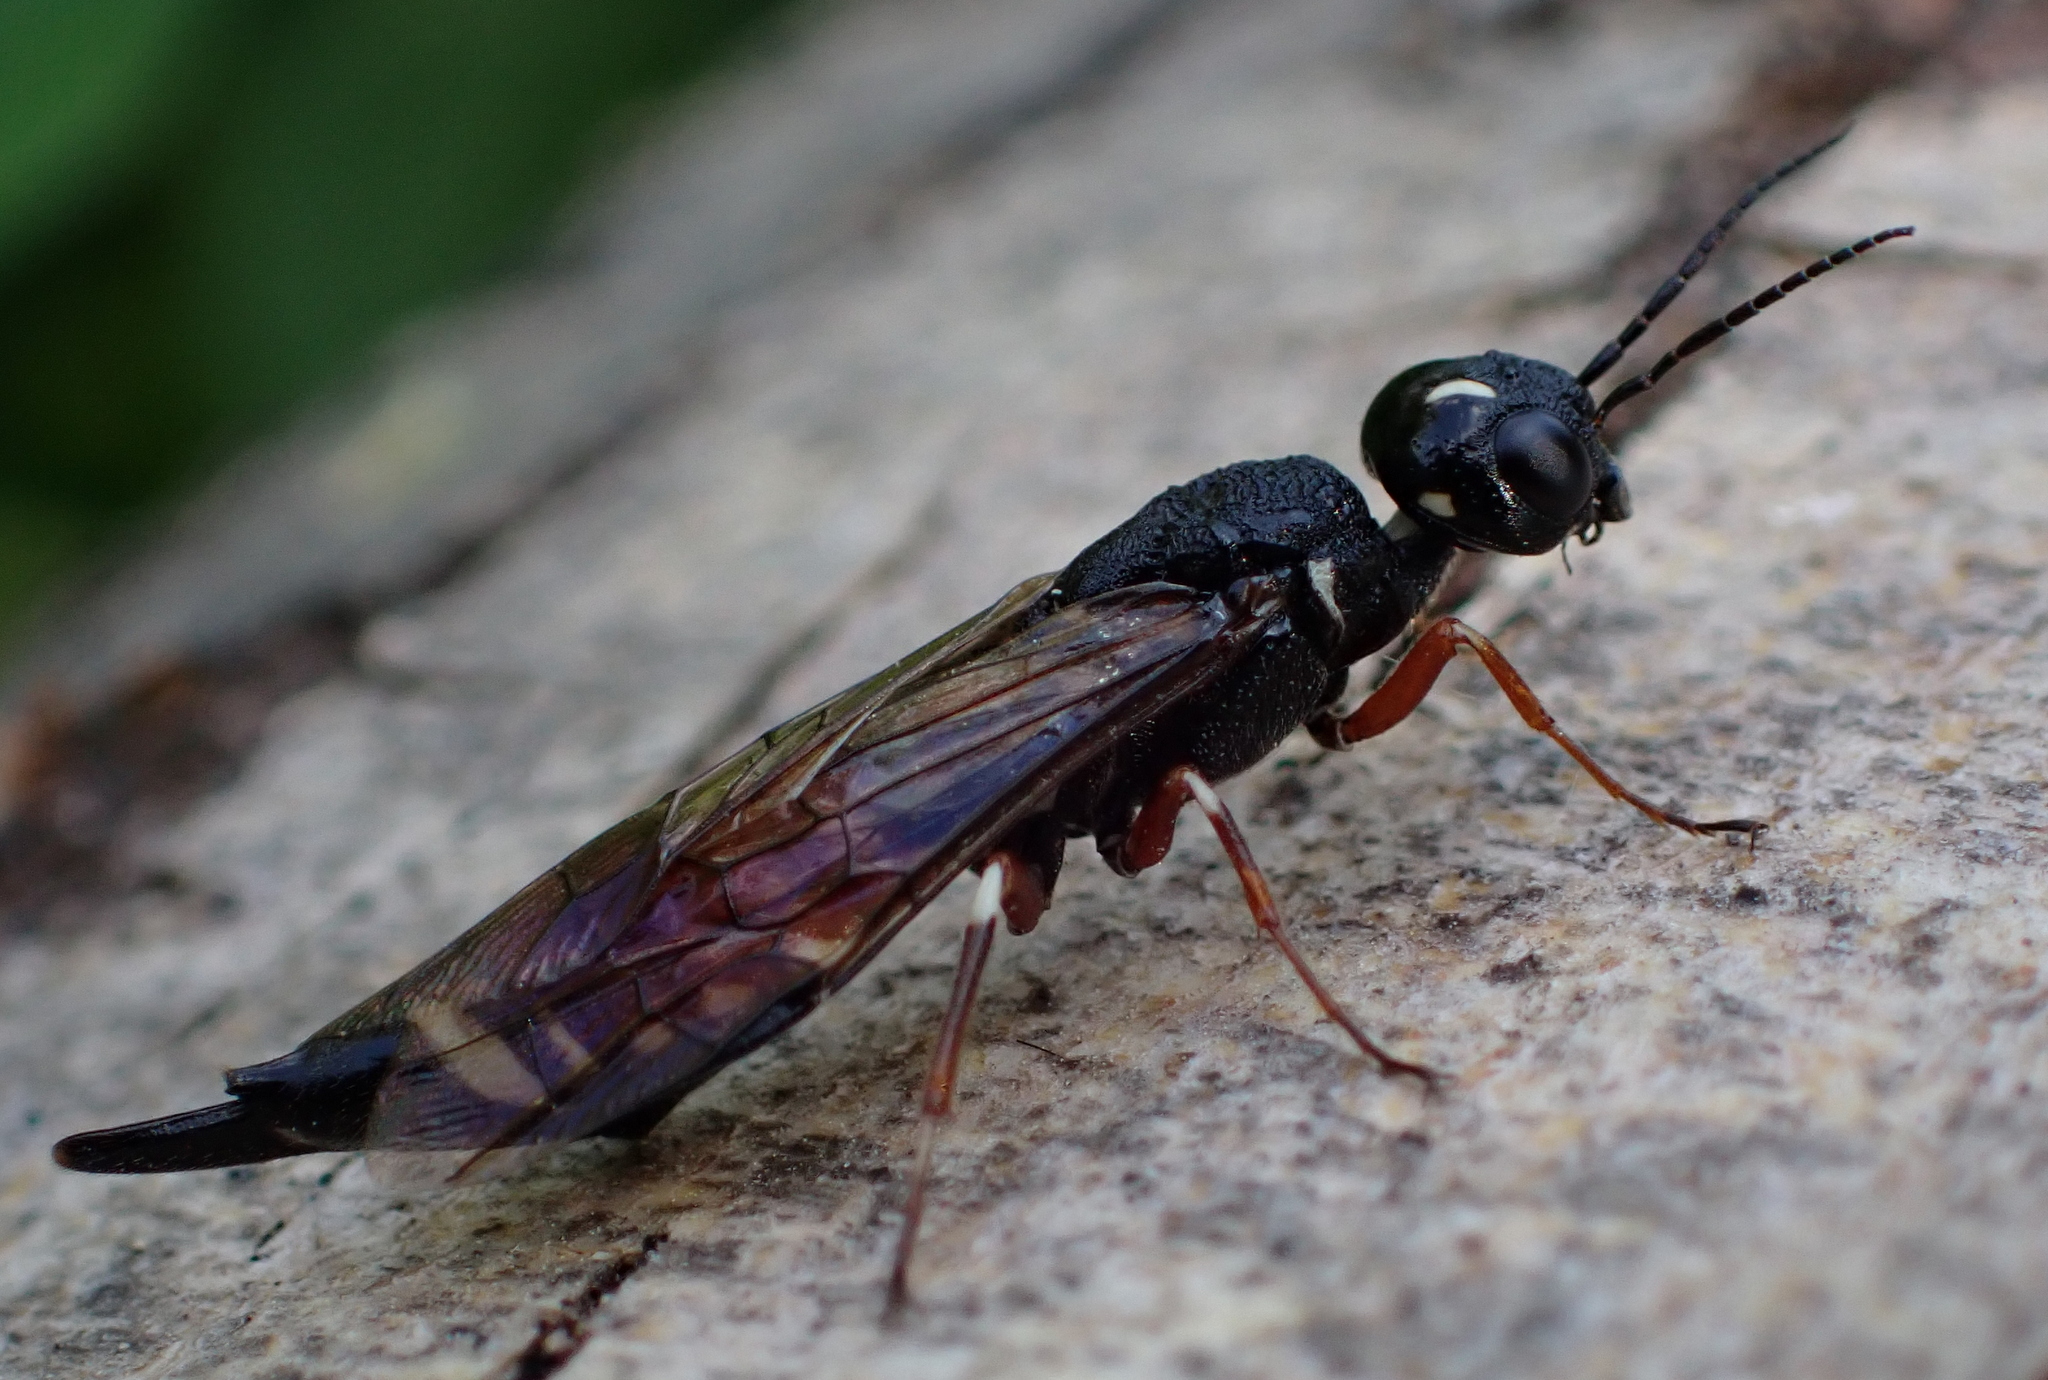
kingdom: Animalia
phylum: Arthropoda
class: Insecta
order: Hymenoptera
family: Xiphydriidae
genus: Xiphydria
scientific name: Xiphydria prolongata
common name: Wasp
